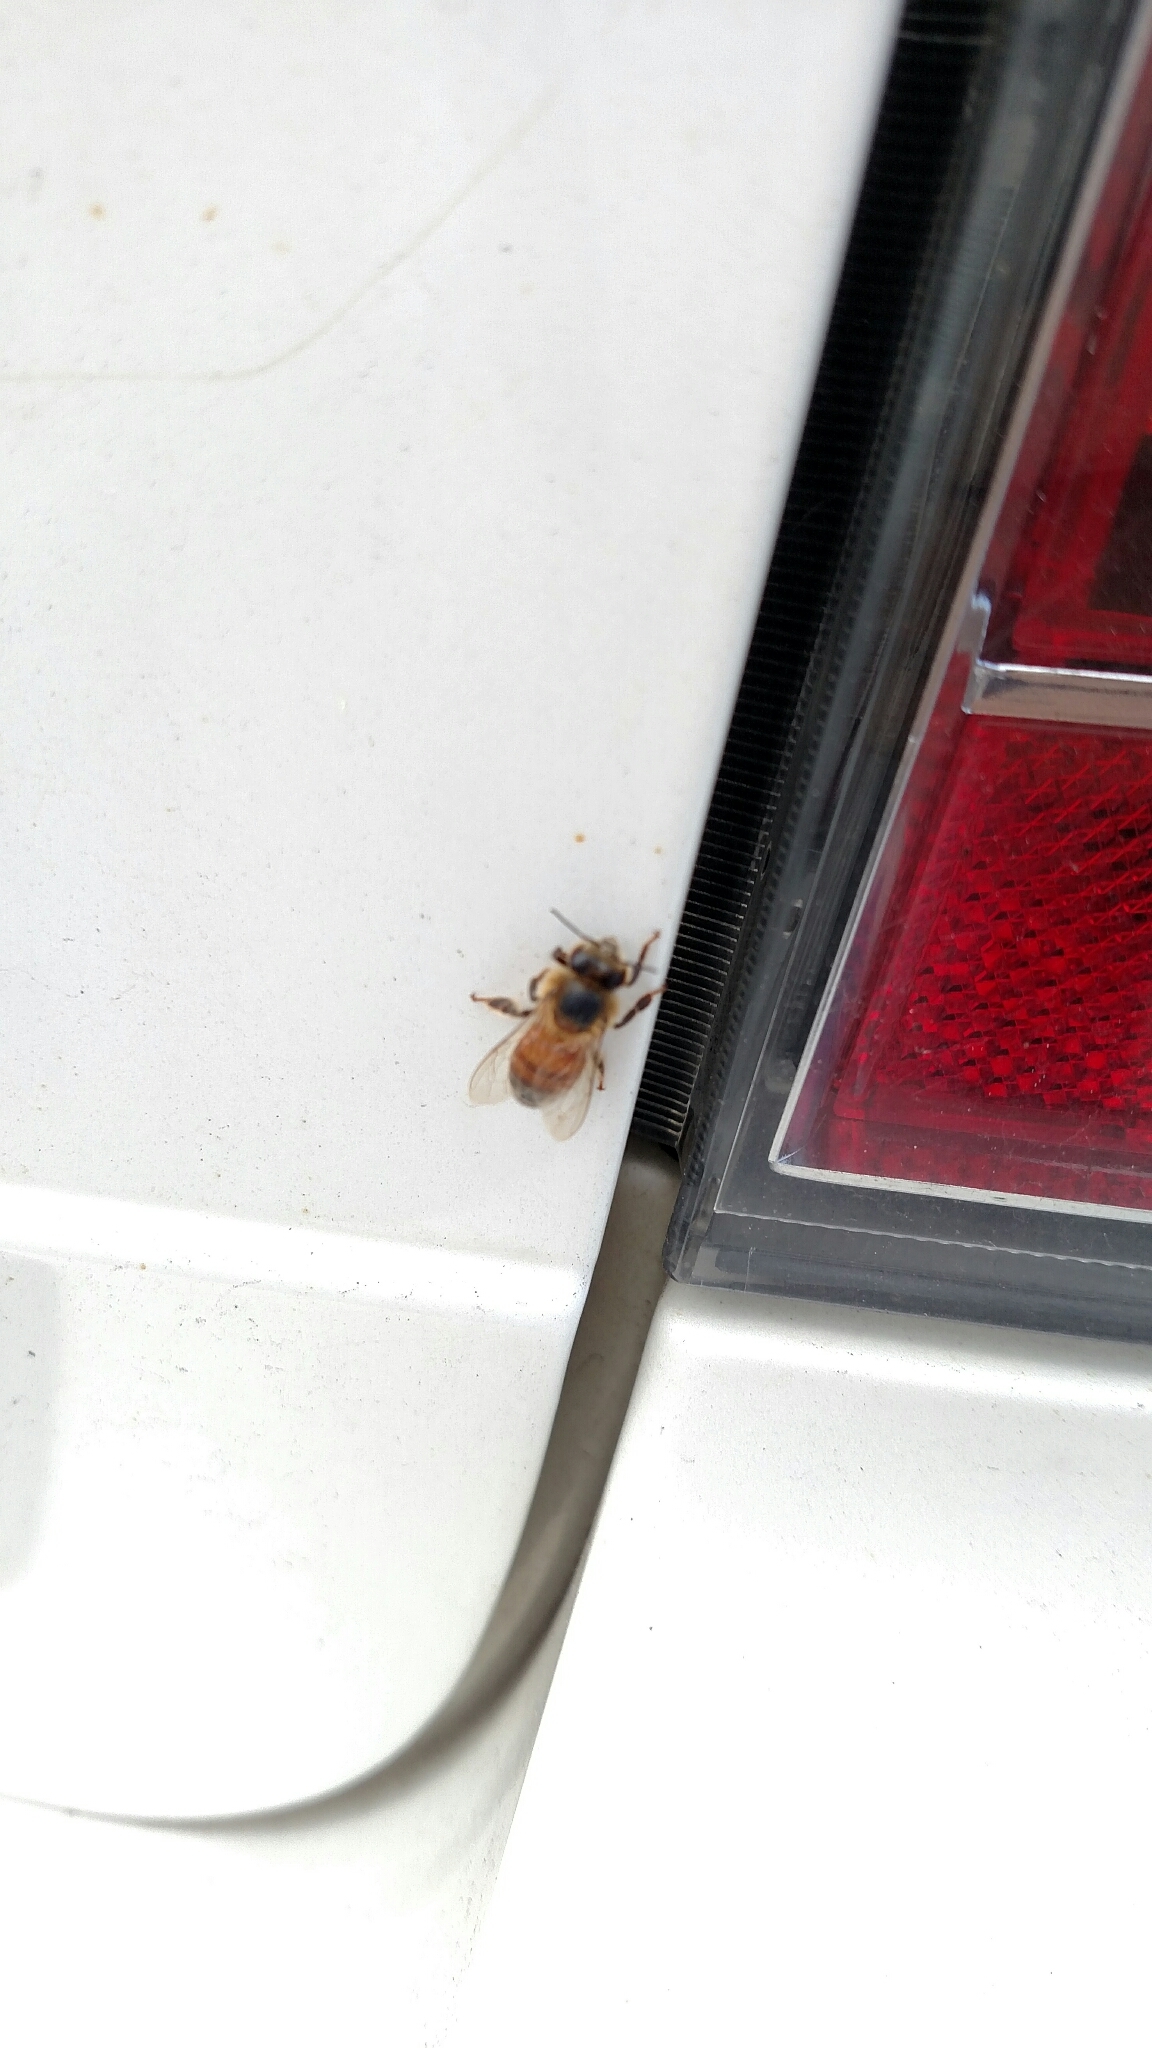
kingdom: Animalia
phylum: Arthropoda
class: Insecta
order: Hymenoptera
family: Apidae
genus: Apis
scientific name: Apis mellifera
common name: Honey bee
